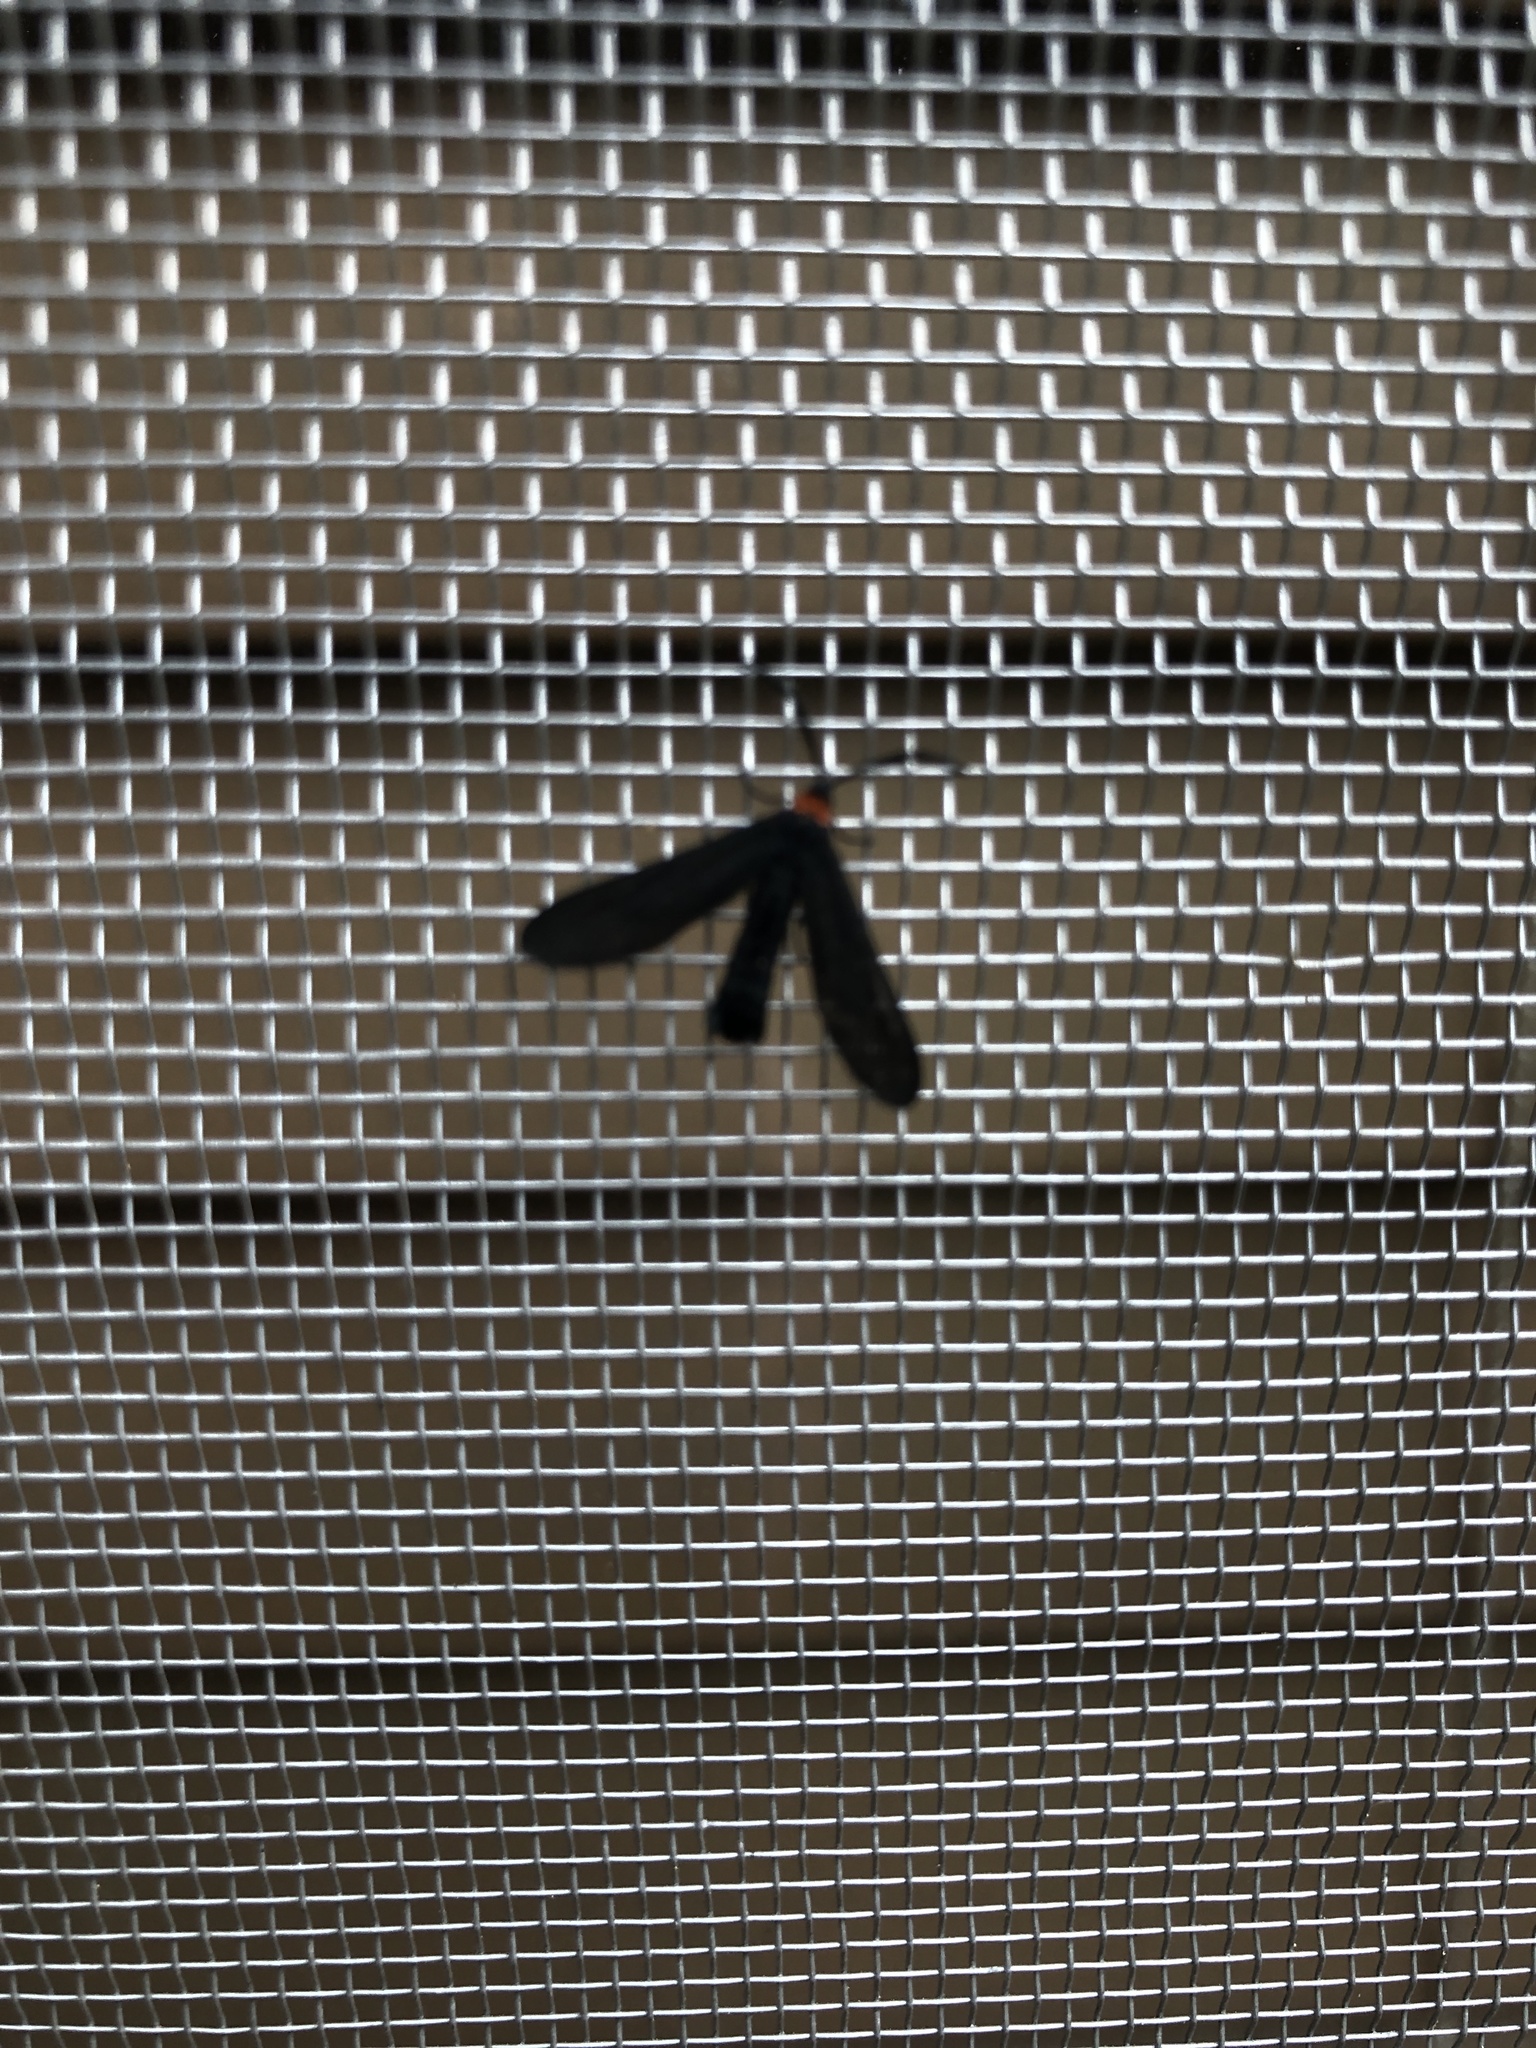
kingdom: Animalia
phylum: Arthropoda
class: Insecta
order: Lepidoptera
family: Zygaenidae
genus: Harrisina
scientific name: Harrisina americana
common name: Grapeleaf skeletonizer moth
